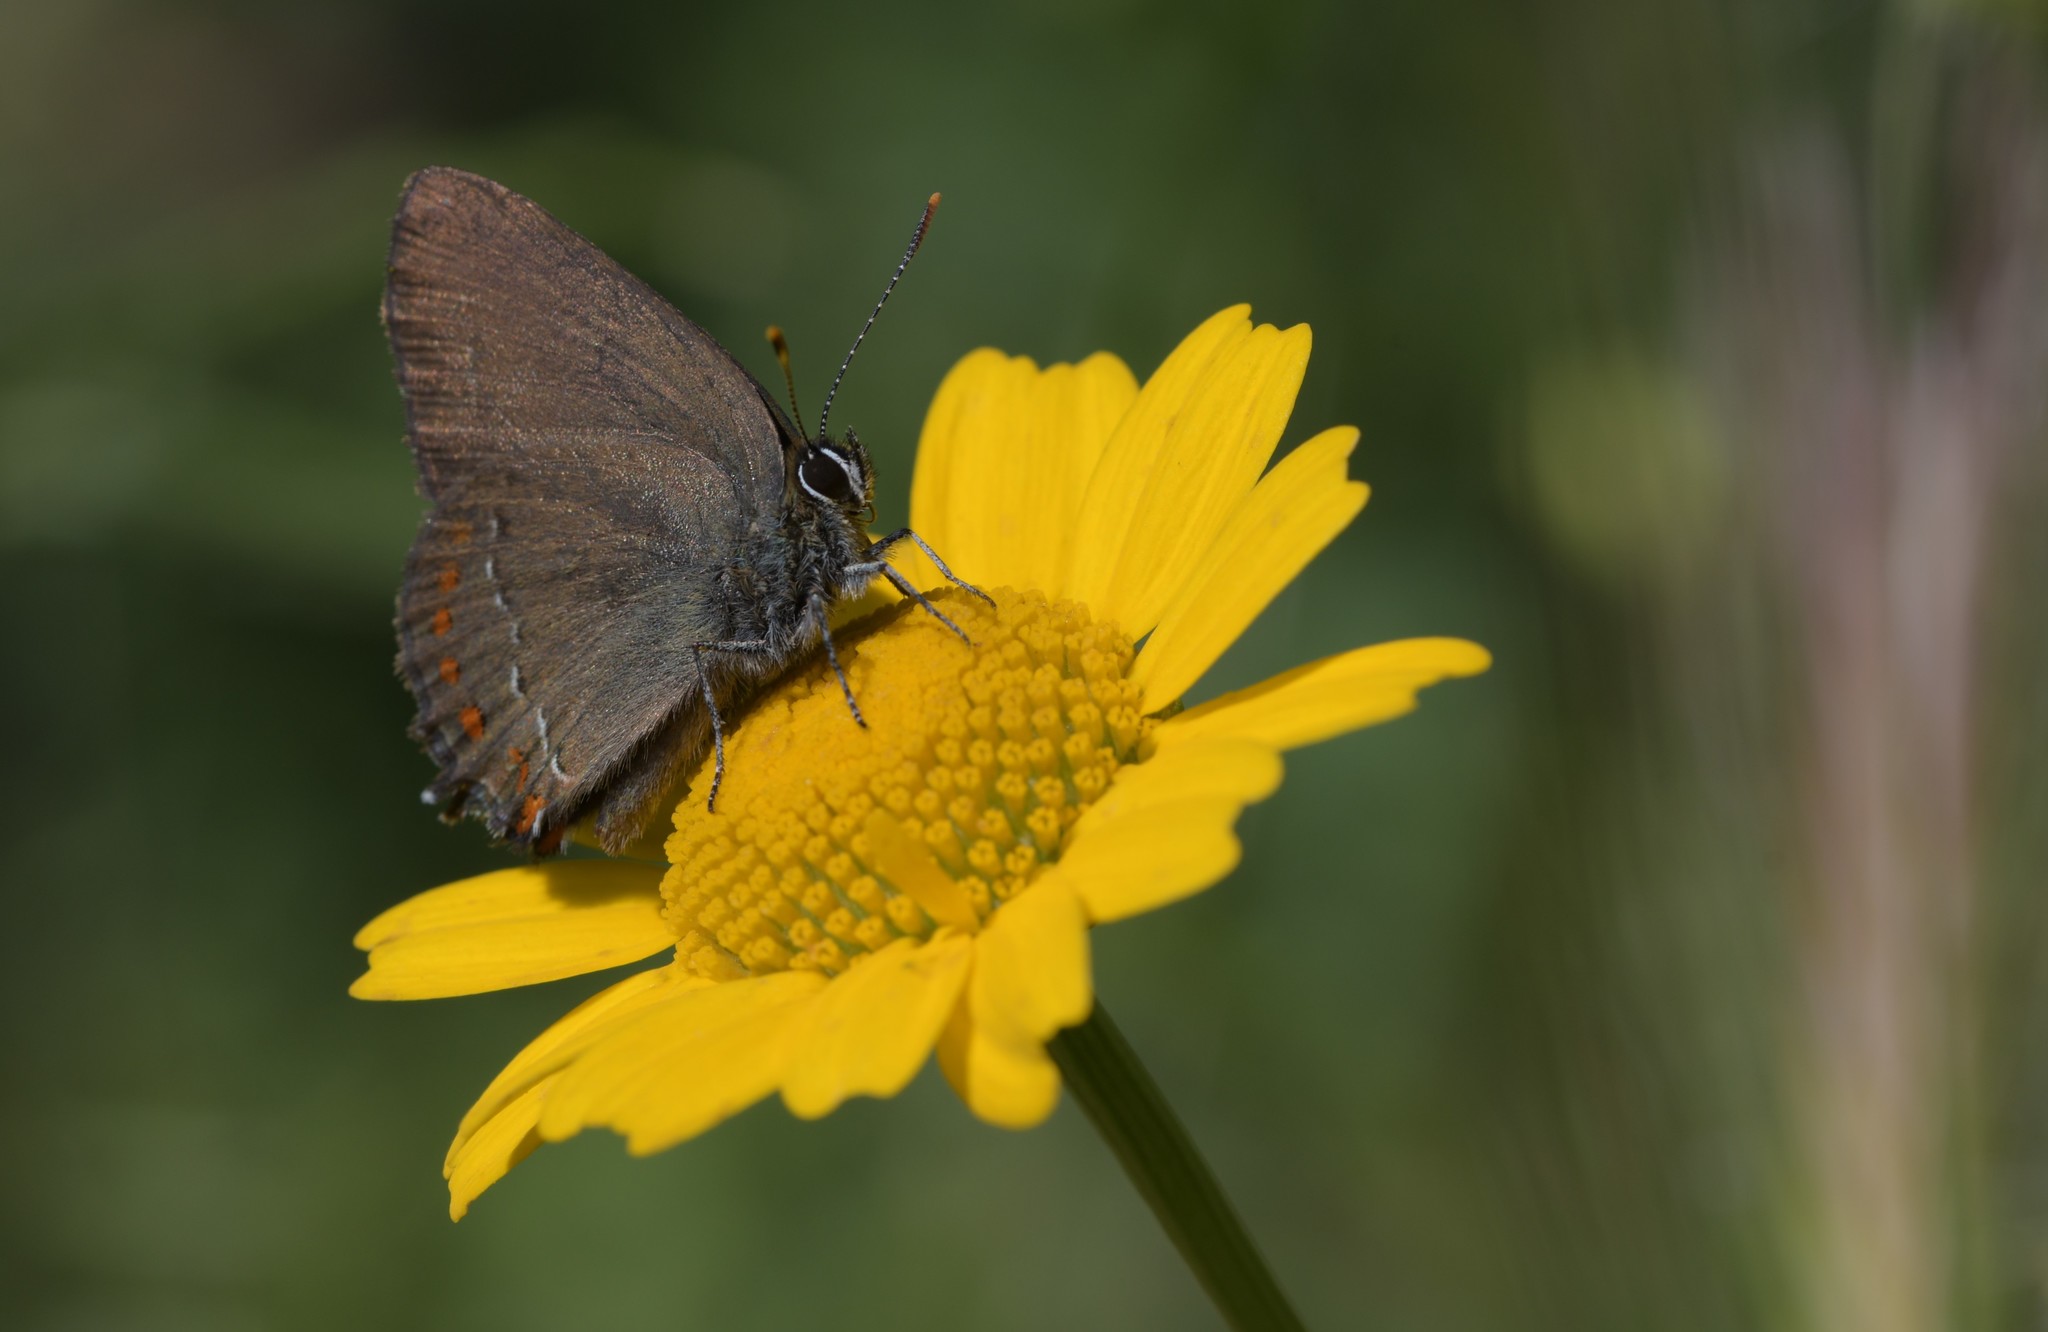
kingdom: Animalia
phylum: Arthropoda
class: Insecta
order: Lepidoptera
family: Lycaenidae
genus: Fixsenia
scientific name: Fixsenia esculi
